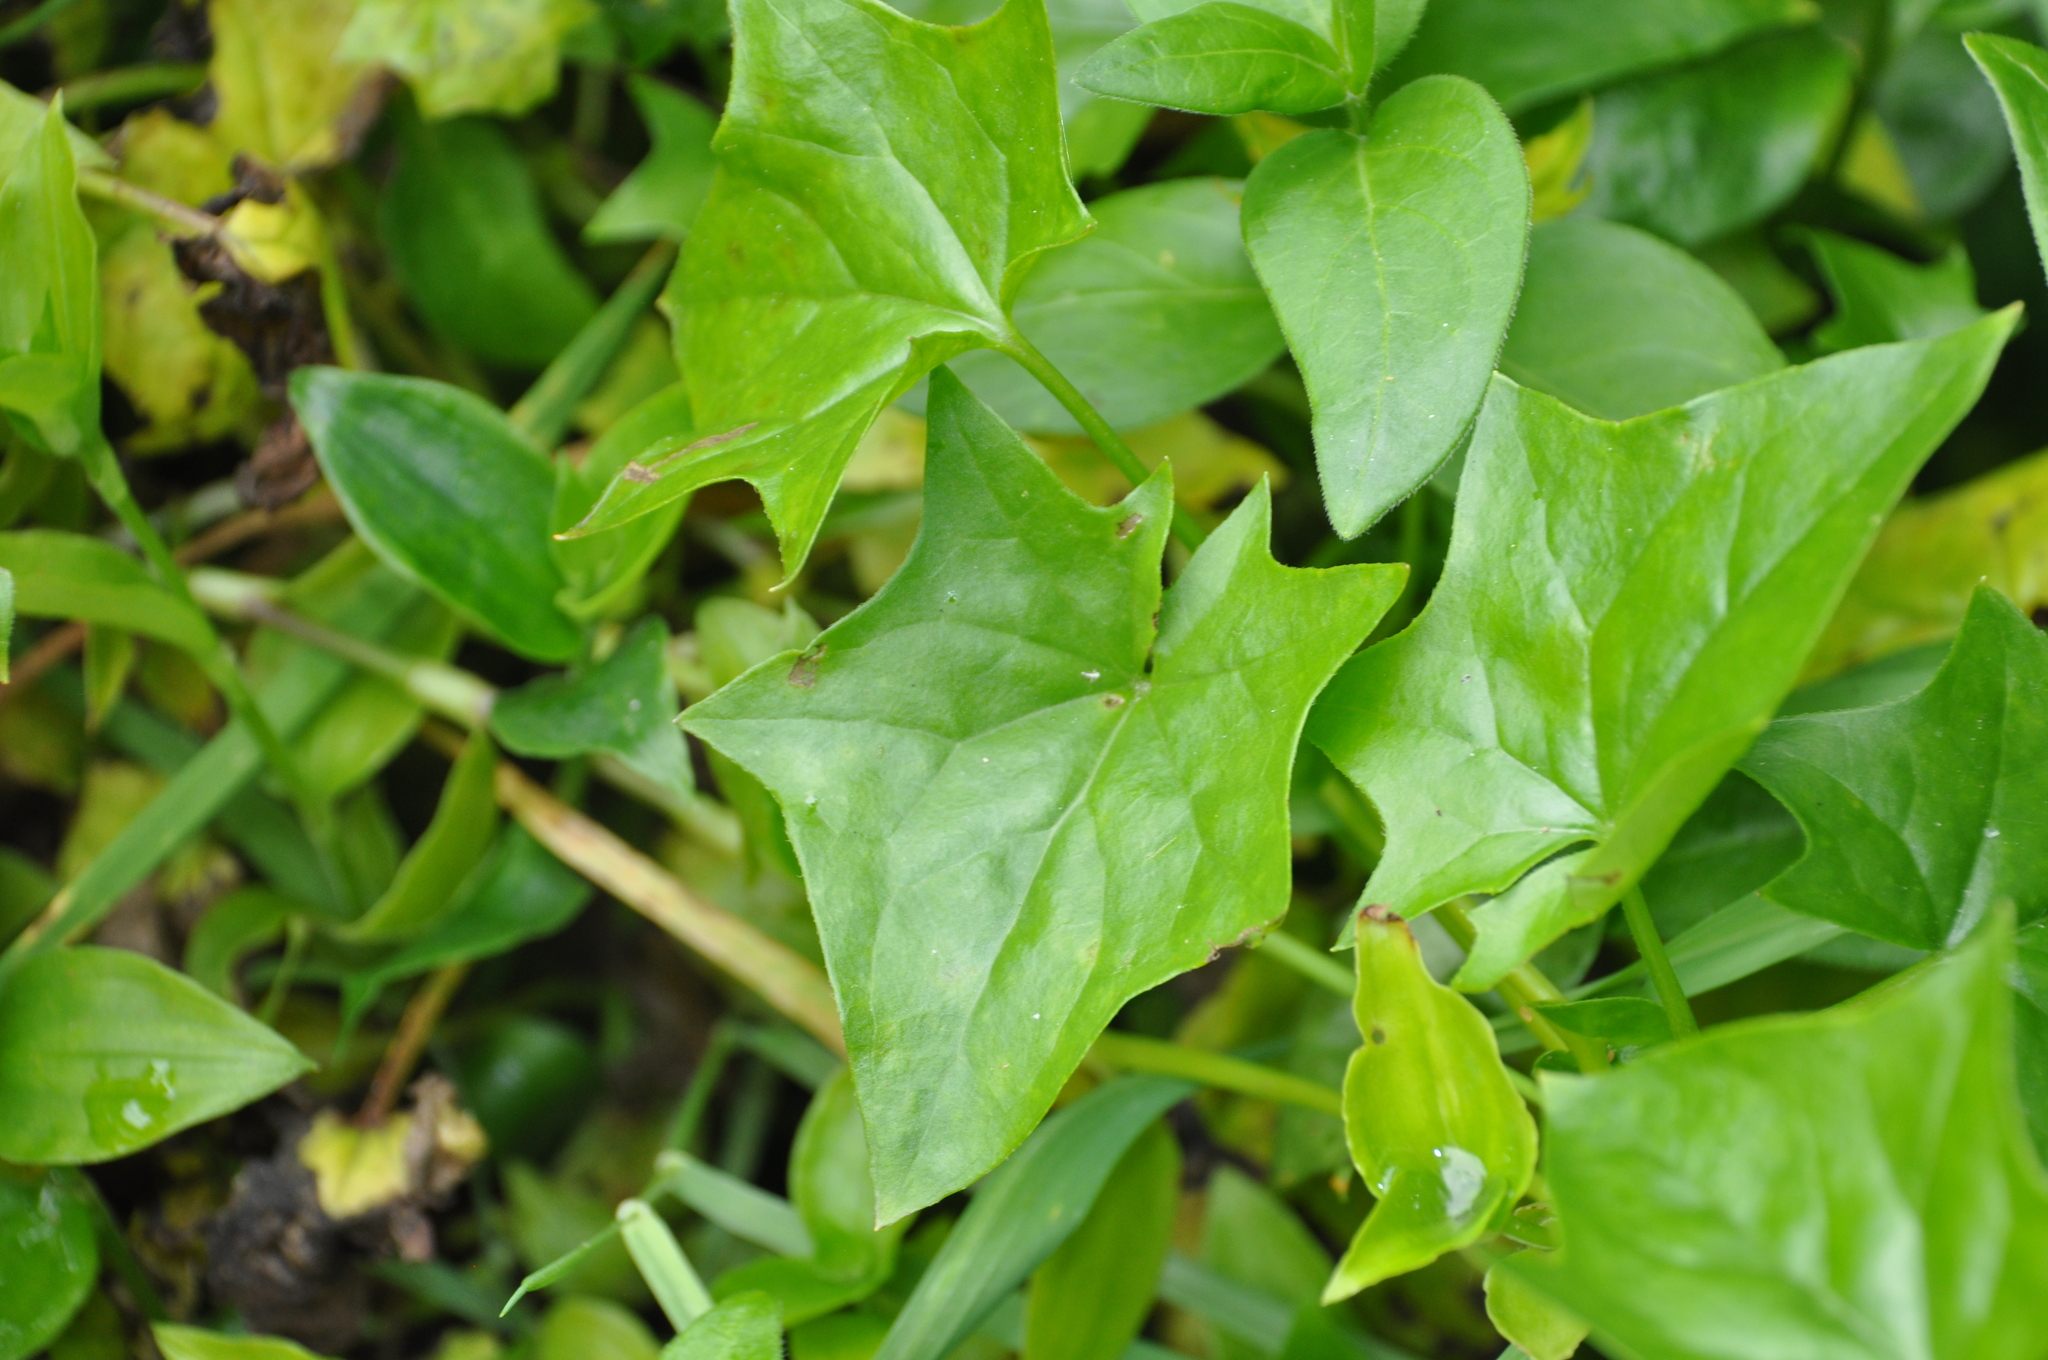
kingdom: Plantae
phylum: Tracheophyta
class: Magnoliopsida
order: Asterales
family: Asteraceae
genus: Delairea
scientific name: Delairea odorata
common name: Cape-ivy
